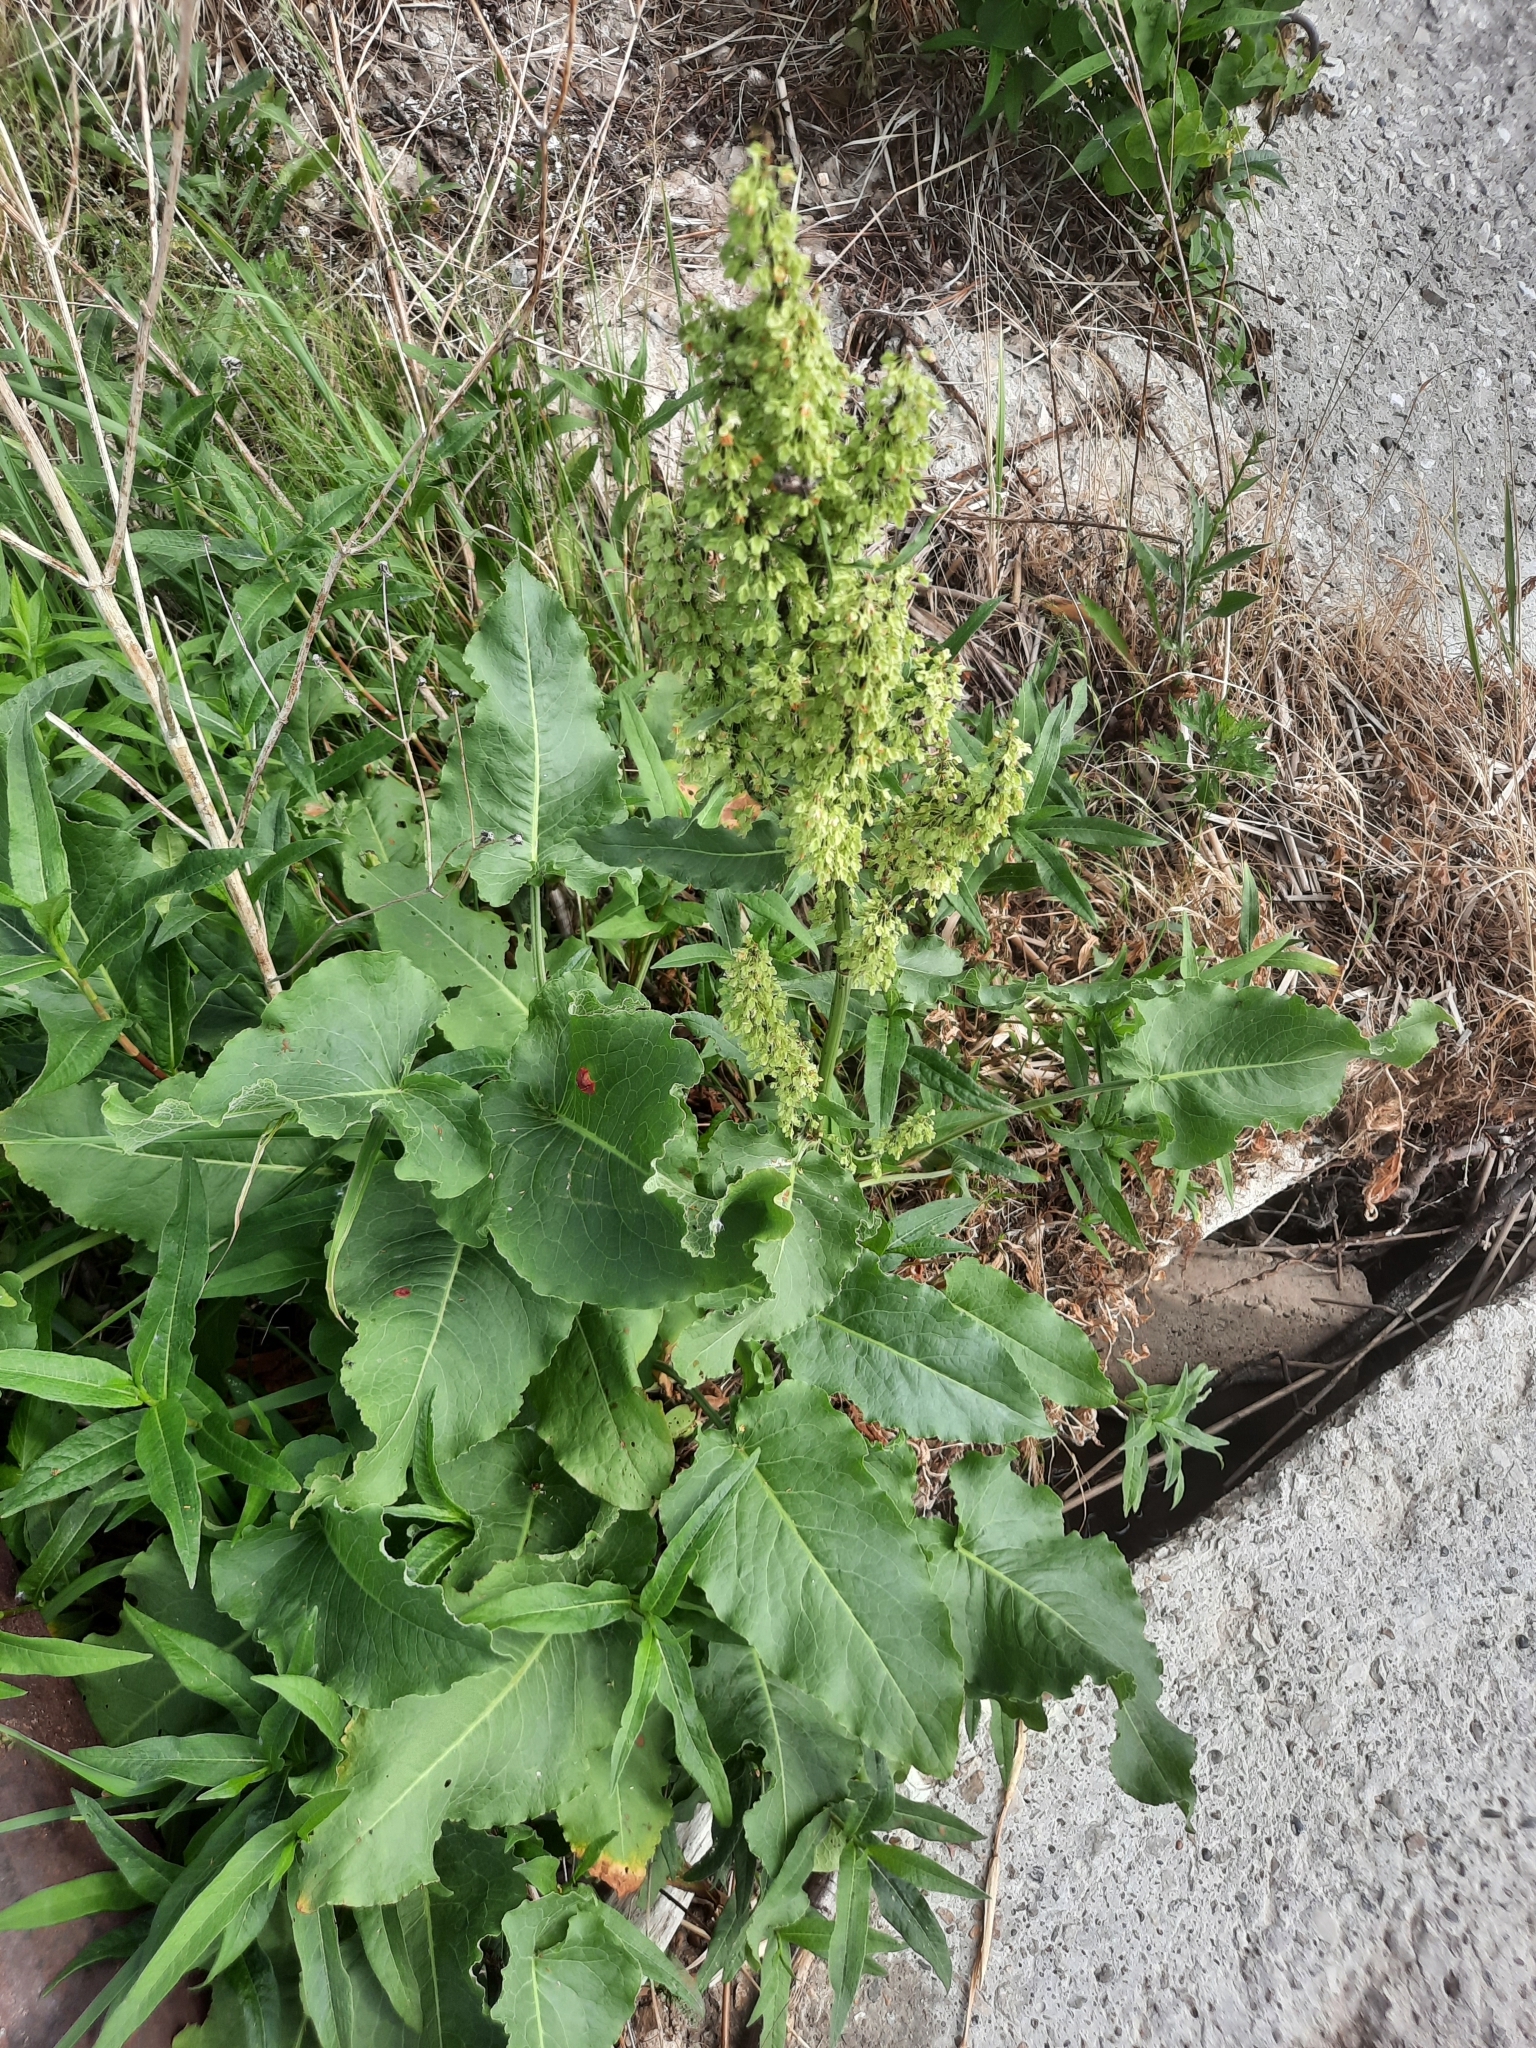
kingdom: Plantae
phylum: Tracheophyta
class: Magnoliopsida
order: Caryophyllales
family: Polygonaceae
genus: Rumex
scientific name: Rumex confertus
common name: Russian dock
